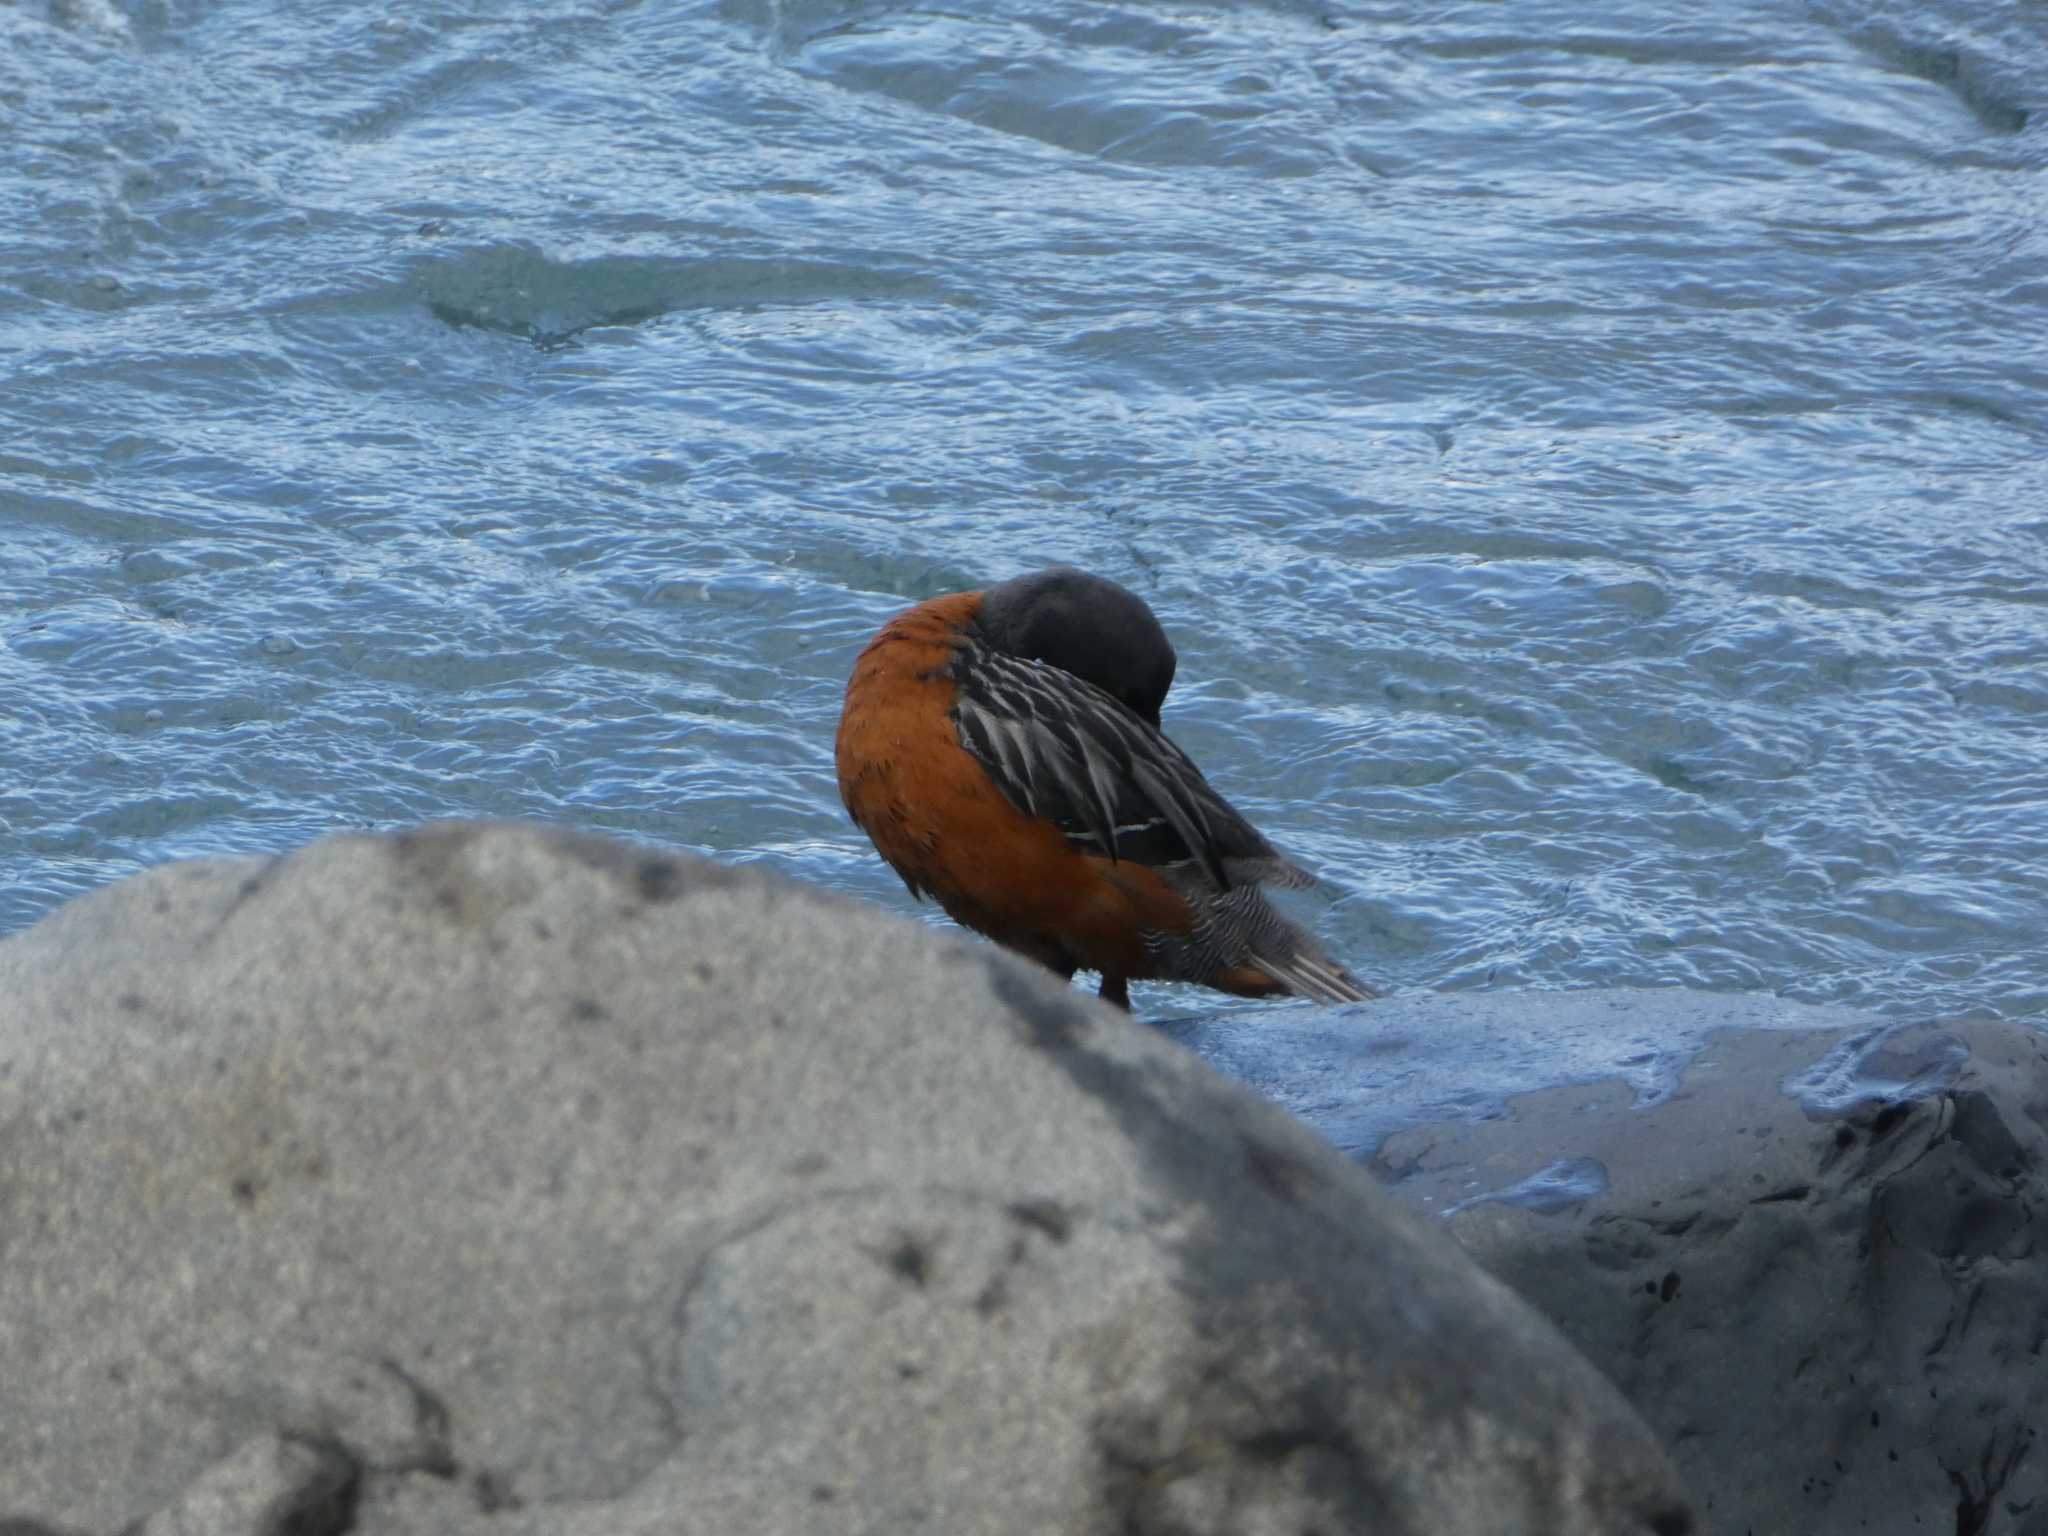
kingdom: Animalia
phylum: Chordata
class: Aves
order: Anseriformes
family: Anatidae
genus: Merganetta
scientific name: Merganetta armata
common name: Torrent duck
